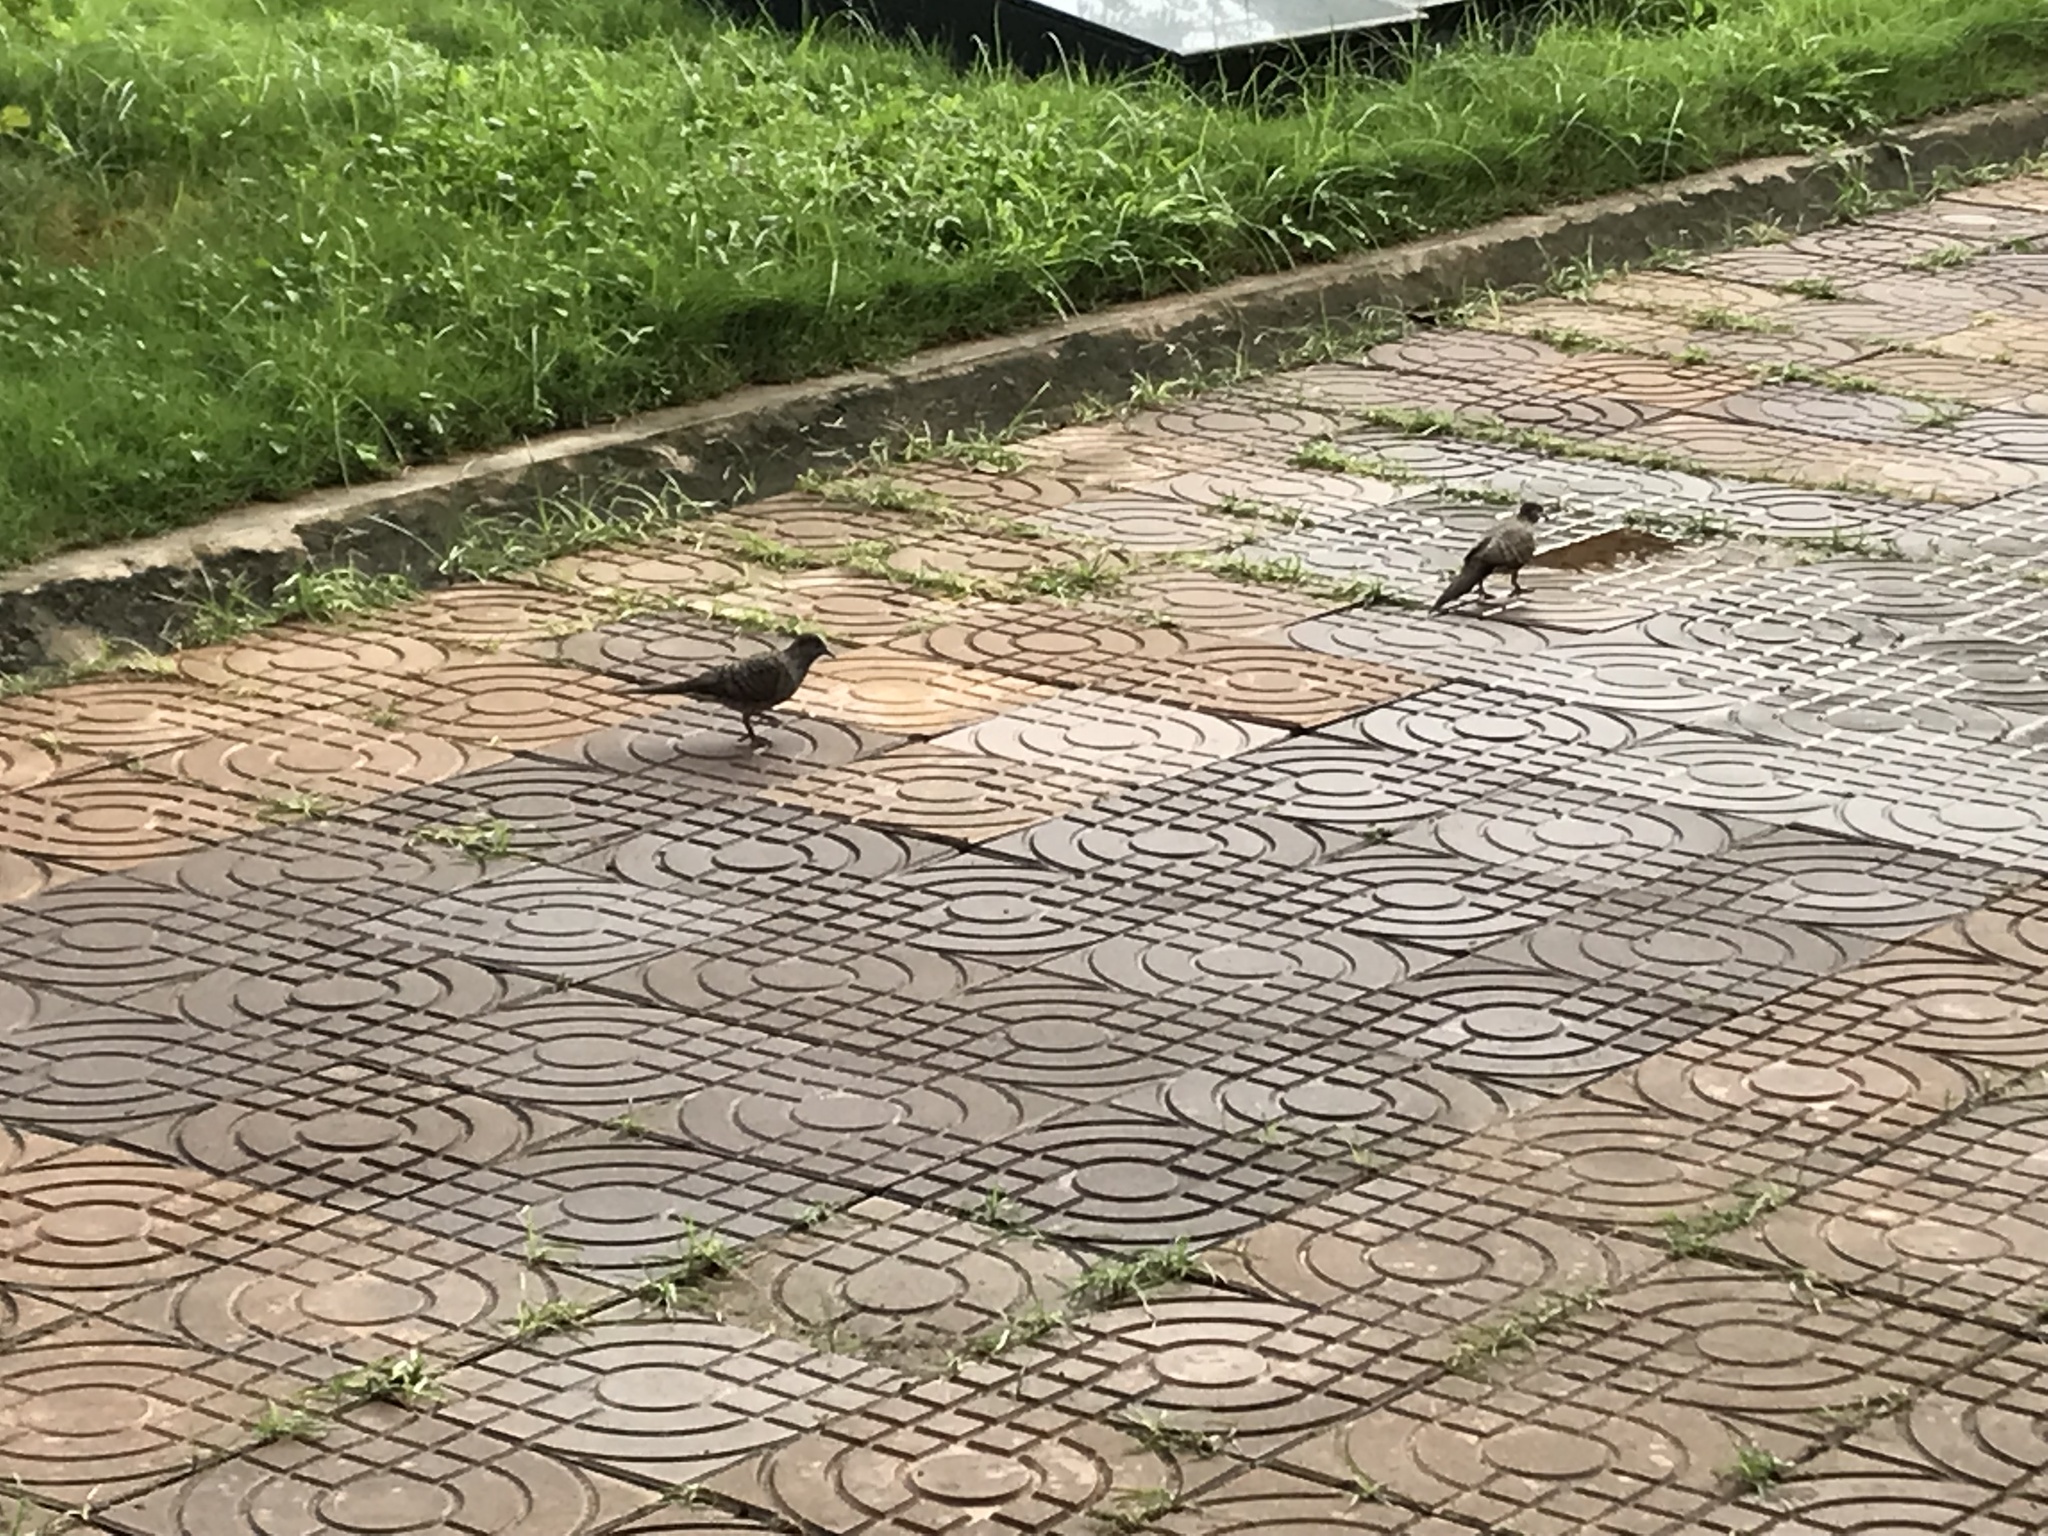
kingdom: Animalia
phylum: Chordata
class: Aves
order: Columbiformes
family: Columbidae
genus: Geopelia
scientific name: Geopelia striata
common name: Zebra dove
